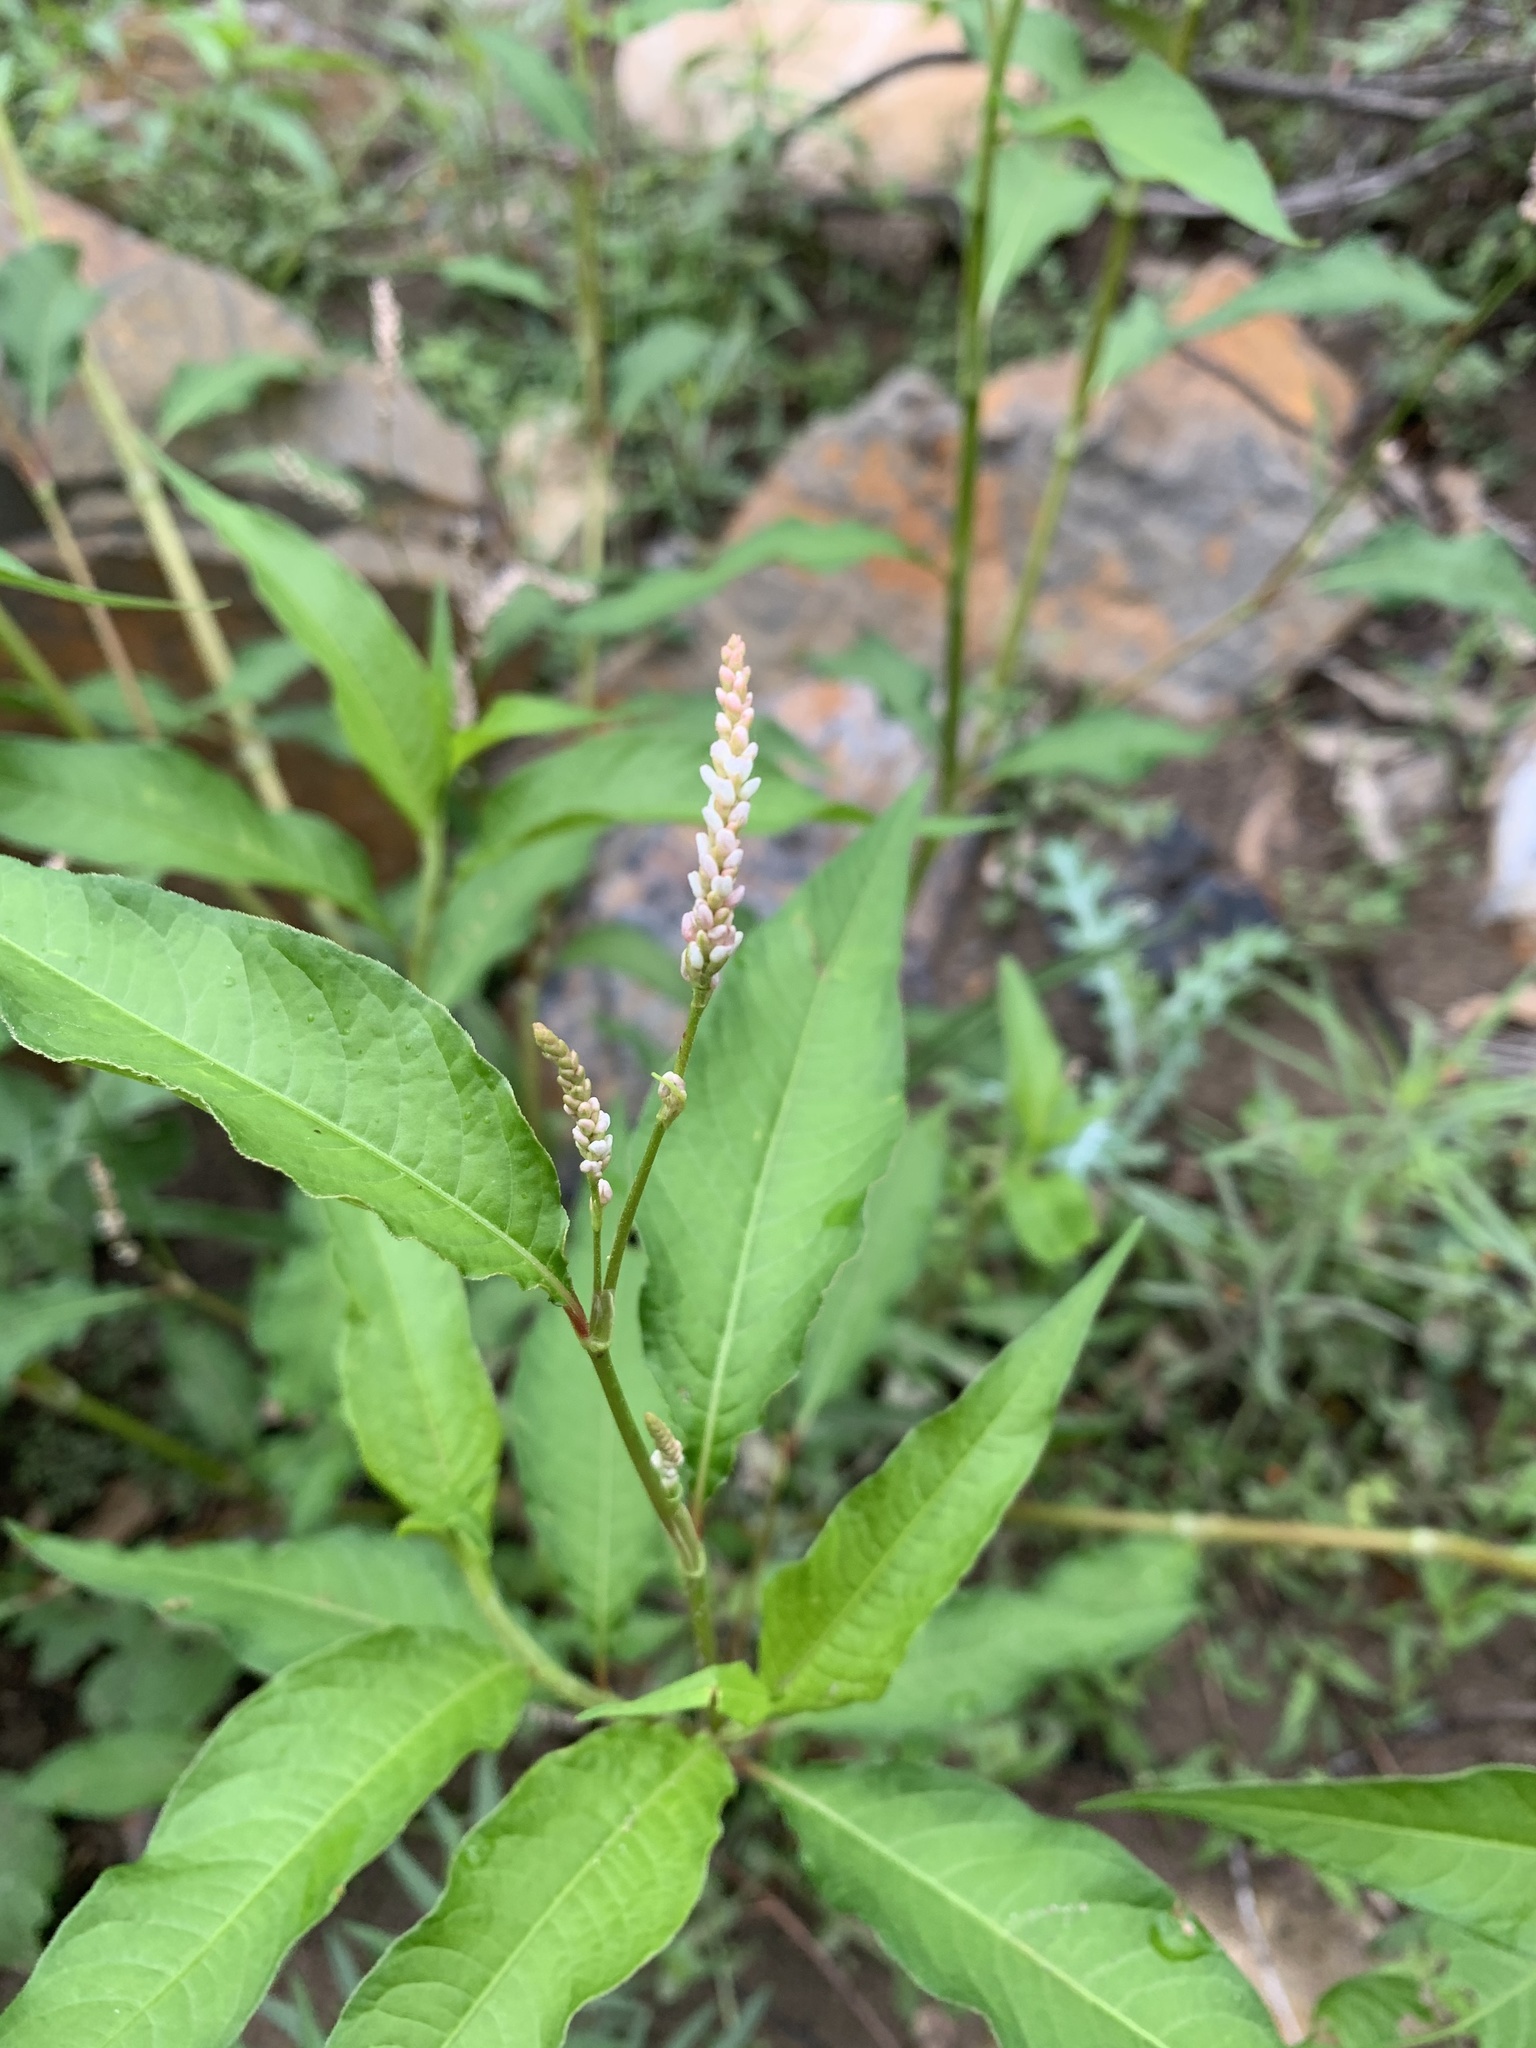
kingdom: Plantae
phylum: Tracheophyta
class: Magnoliopsida
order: Caryophyllales
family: Polygonaceae
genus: Persicaria
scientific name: Persicaria lapathifolia
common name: Curlytop knotweed
